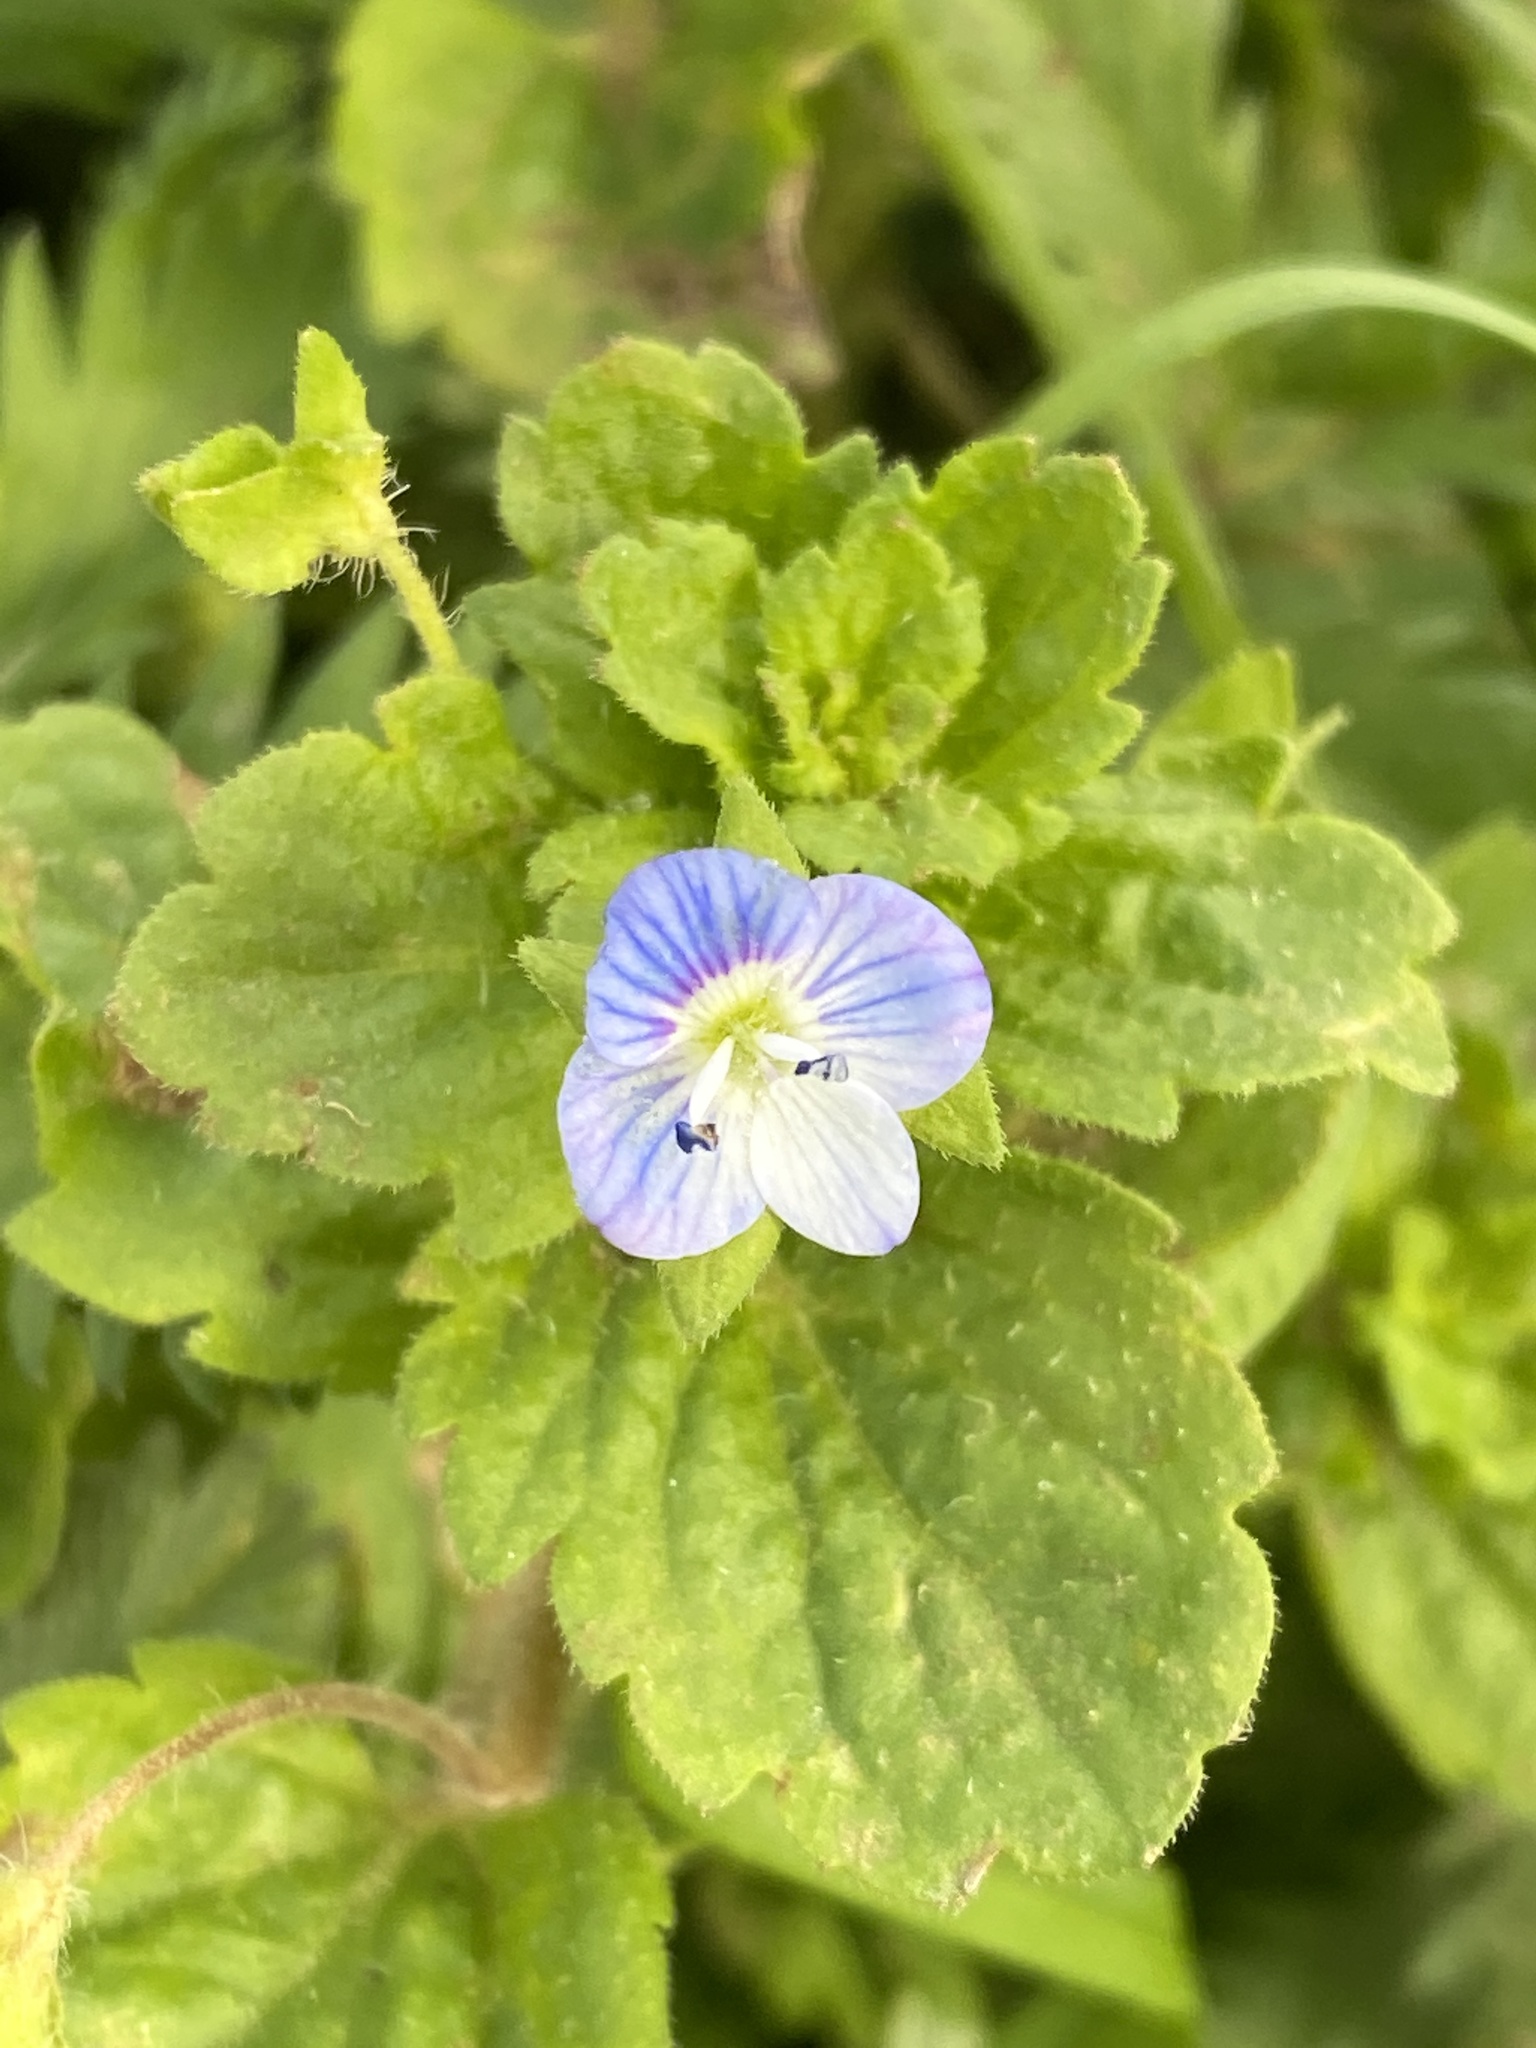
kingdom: Plantae
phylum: Tracheophyta
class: Magnoliopsida
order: Lamiales
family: Plantaginaceae
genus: Veronica
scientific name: Veronica persica
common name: Common field-speedwell
